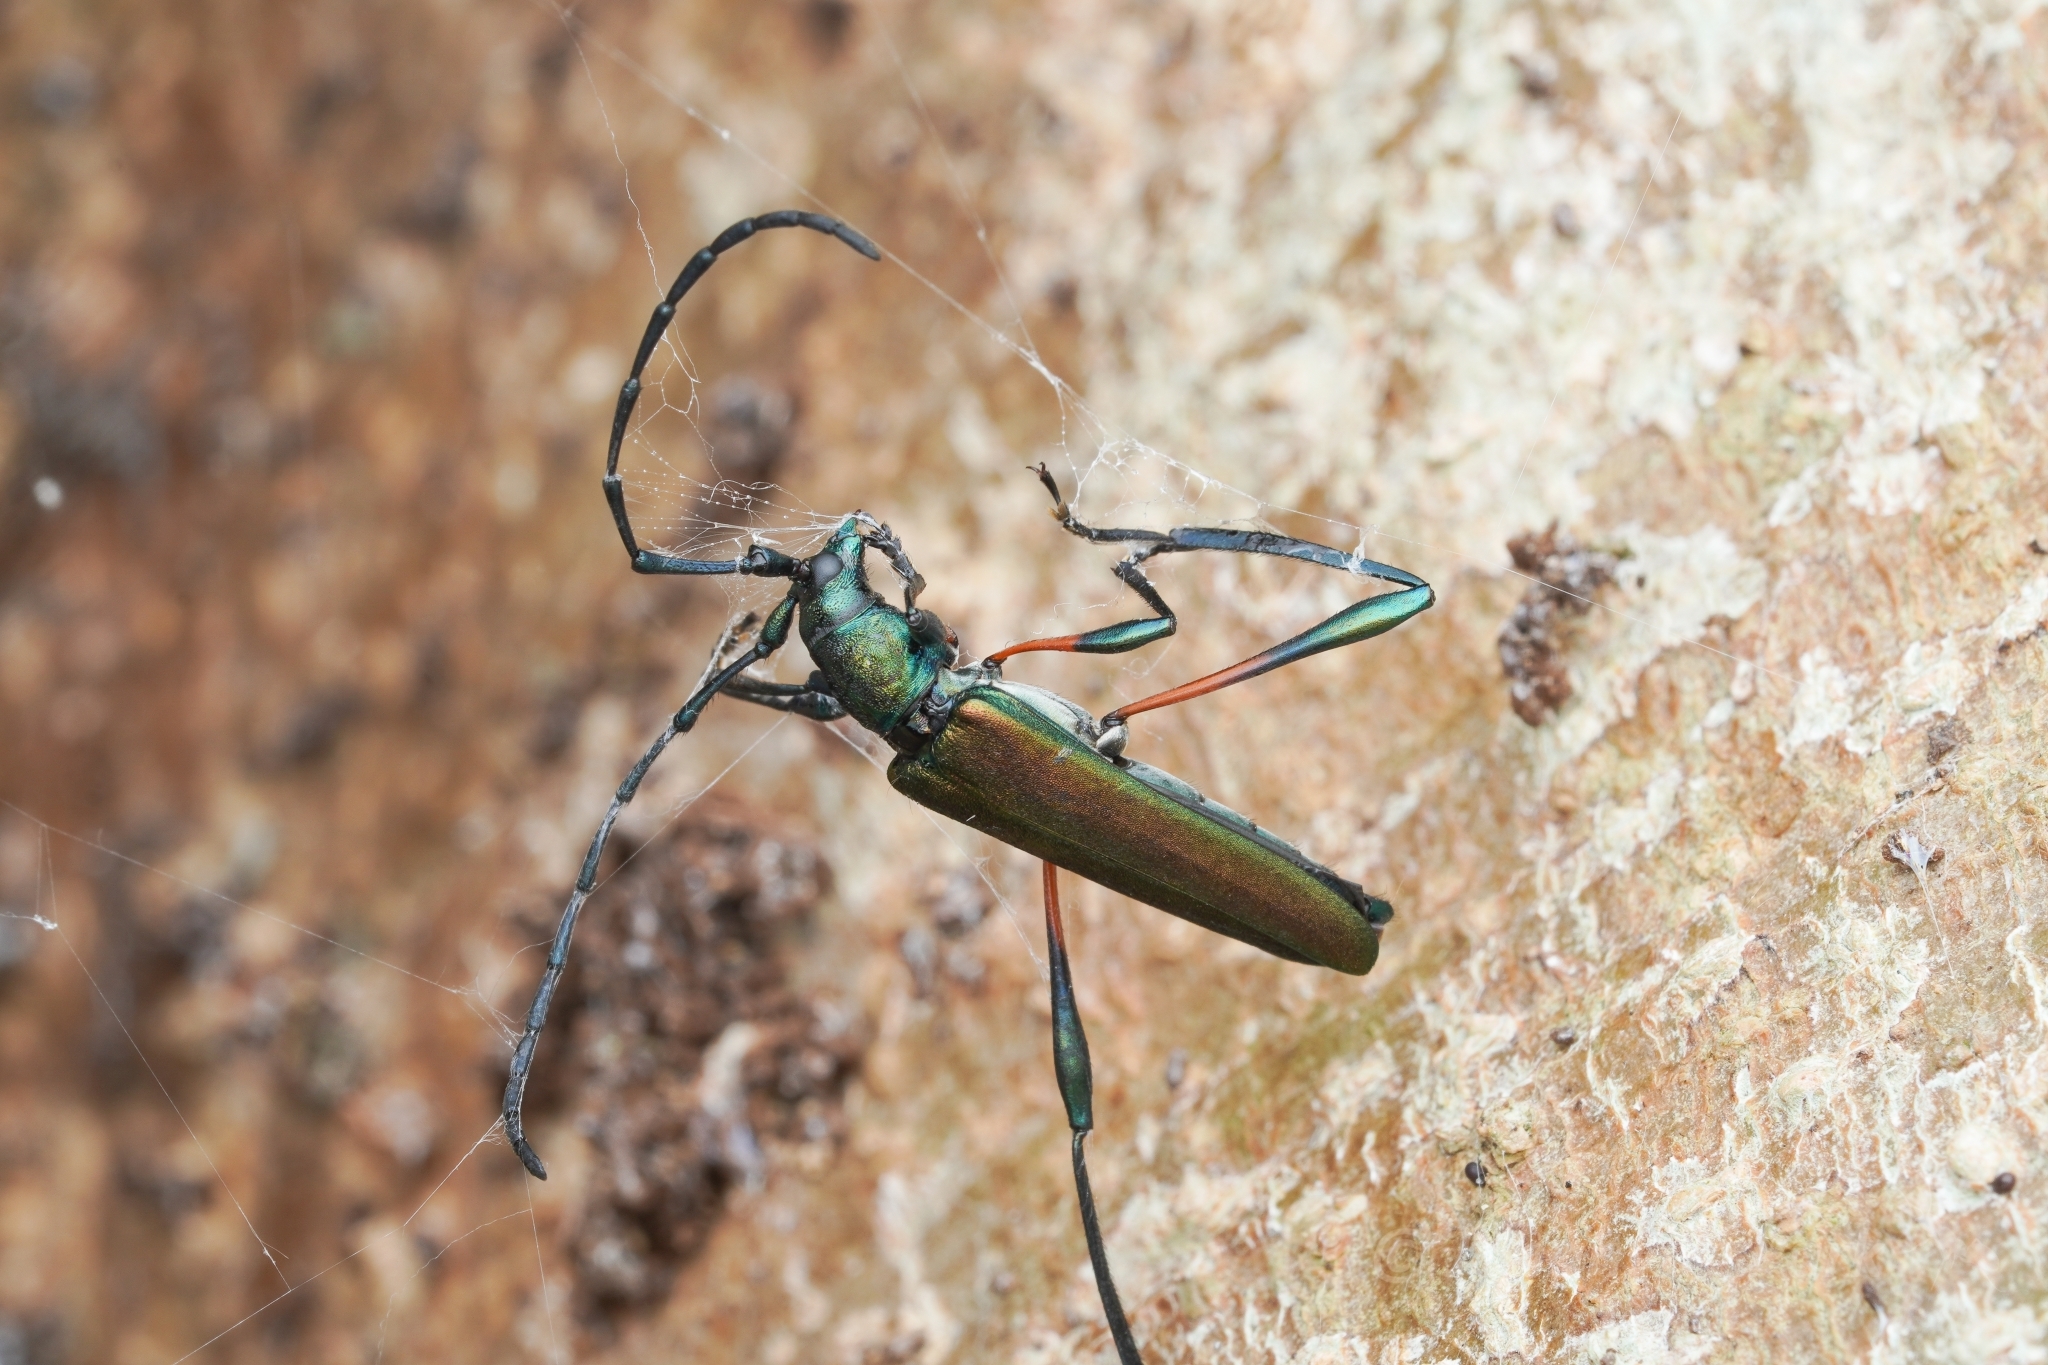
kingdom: Animalia
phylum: Arthropoda
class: Insecta
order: Coleoptera
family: Cerambycidae
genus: Litopus
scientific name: Litopus latipes
